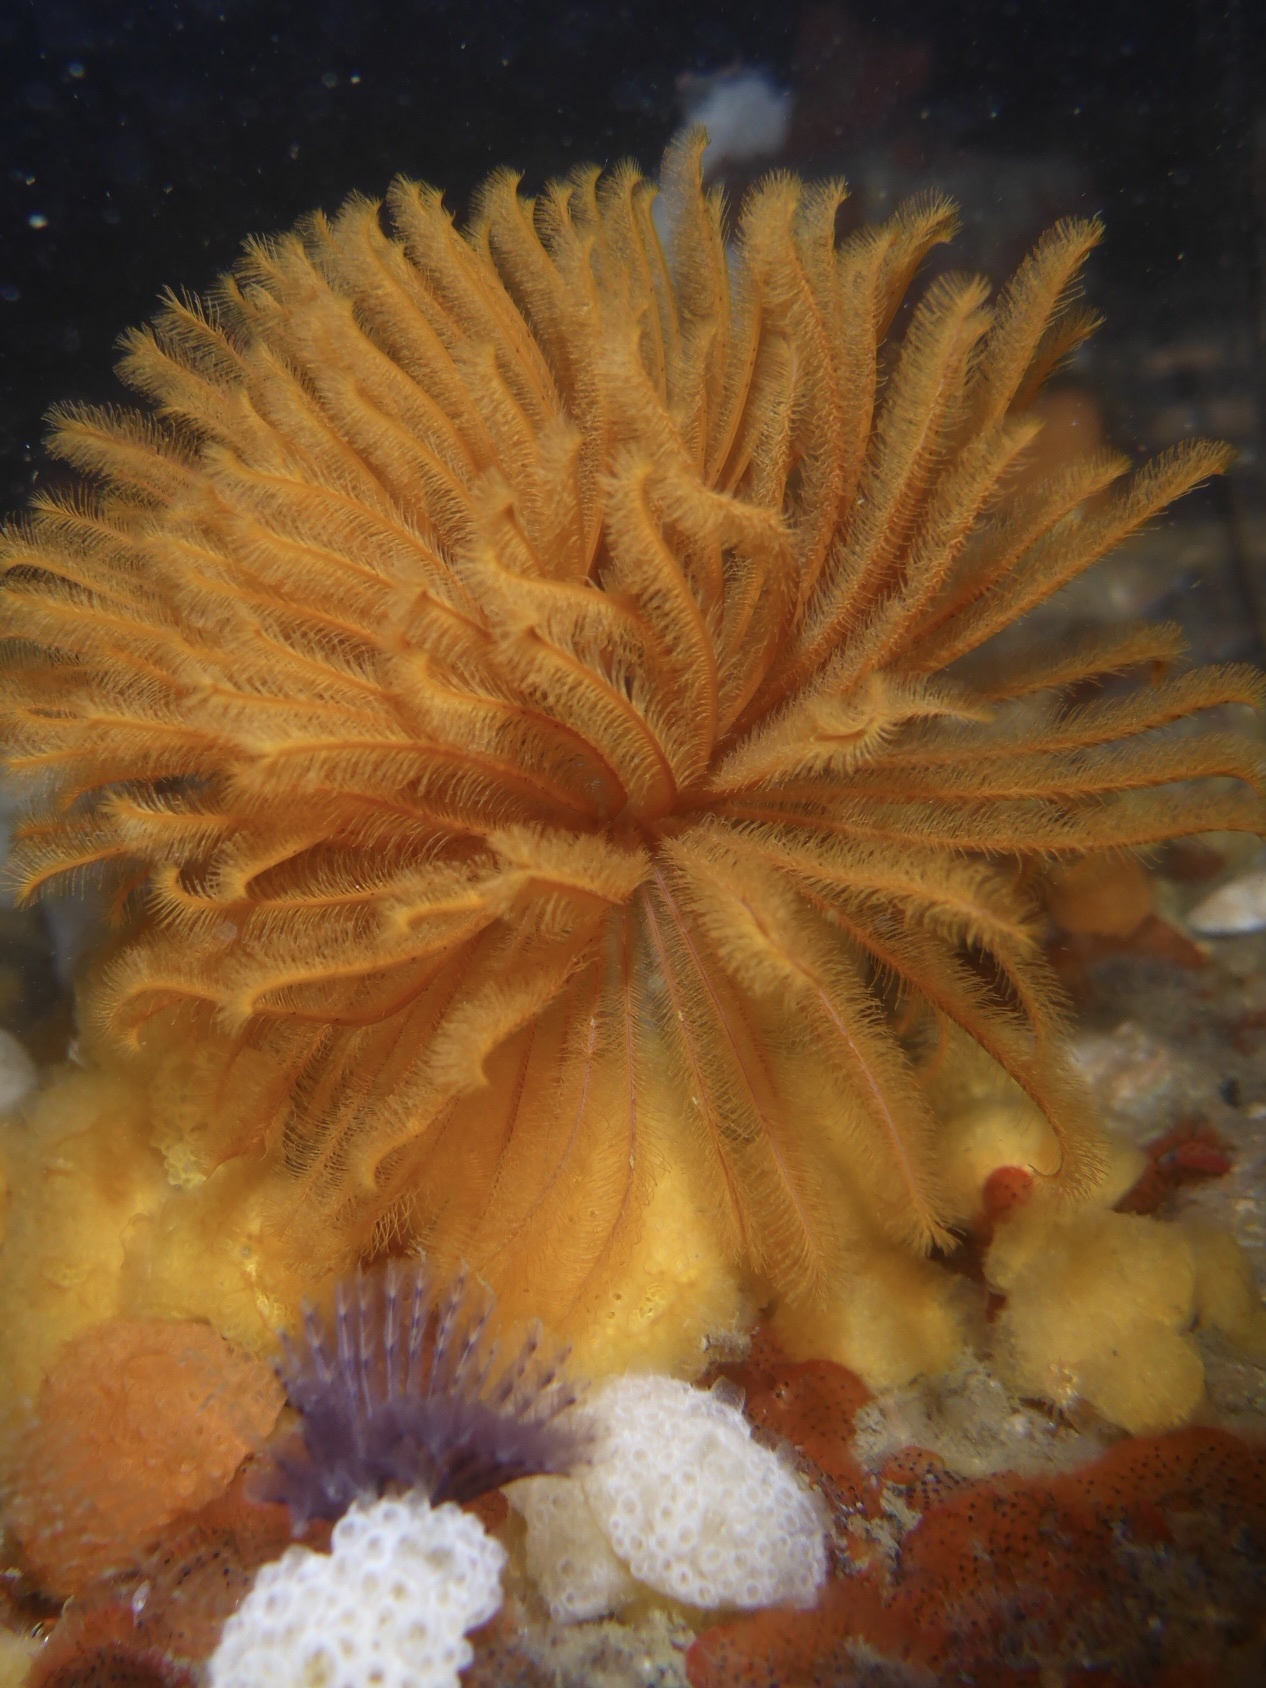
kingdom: Animalia
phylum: Annelida
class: Polychaeta
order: Sabellida
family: Sabellidae
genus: Eudistylia
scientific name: Eudistylia polymorpha
